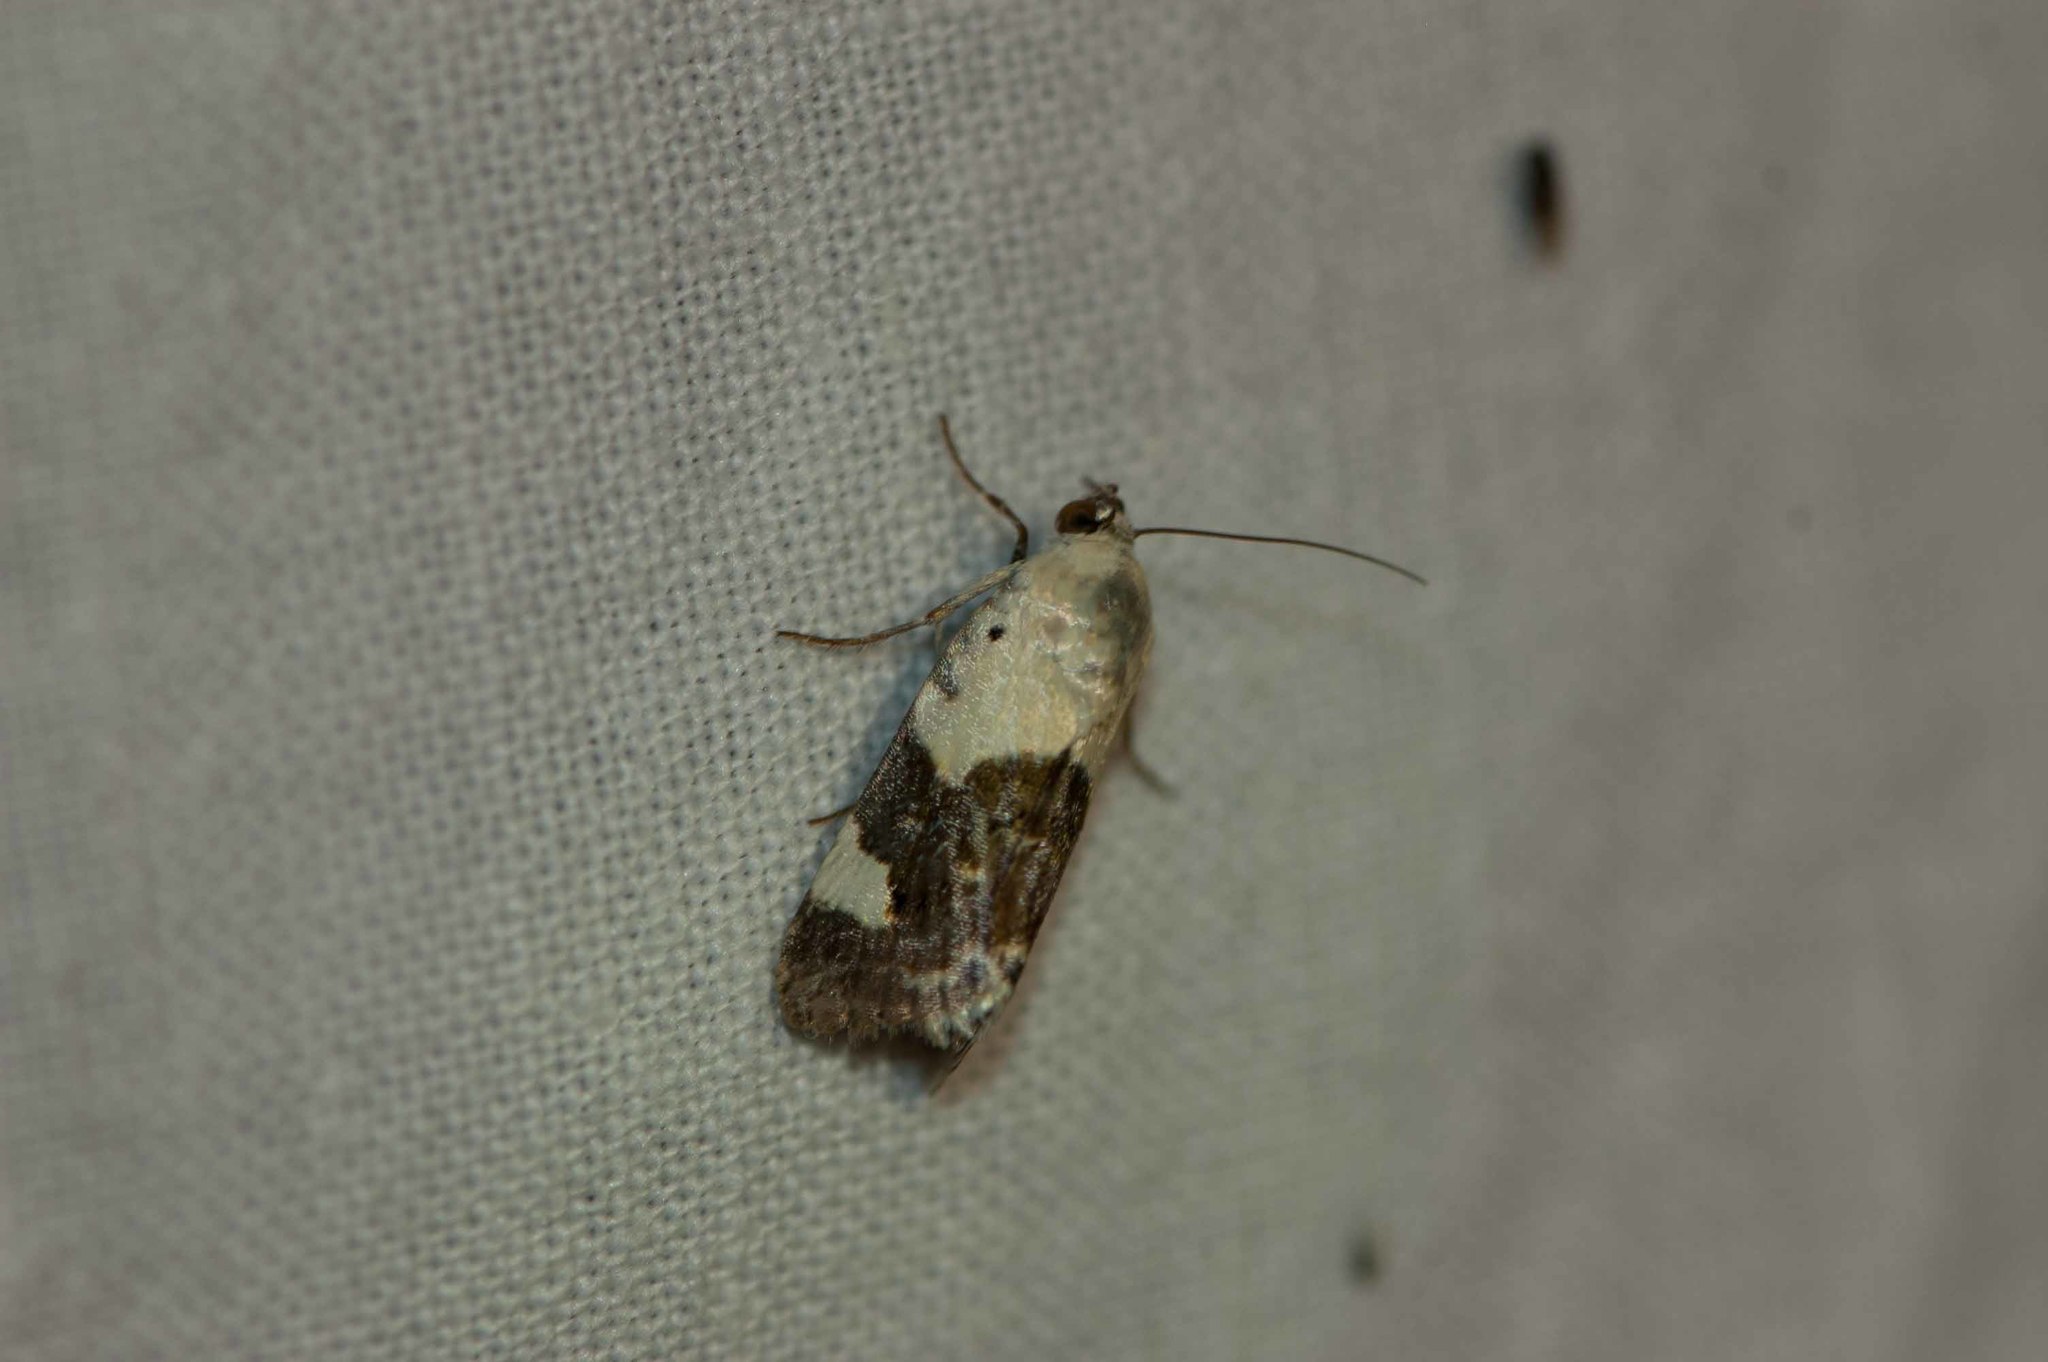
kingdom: Animalia
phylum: Arthropoda
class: Insecta
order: Lepidoptera
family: Noctuidae
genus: Acontia
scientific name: Acontia lucida
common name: Pale shoulder
